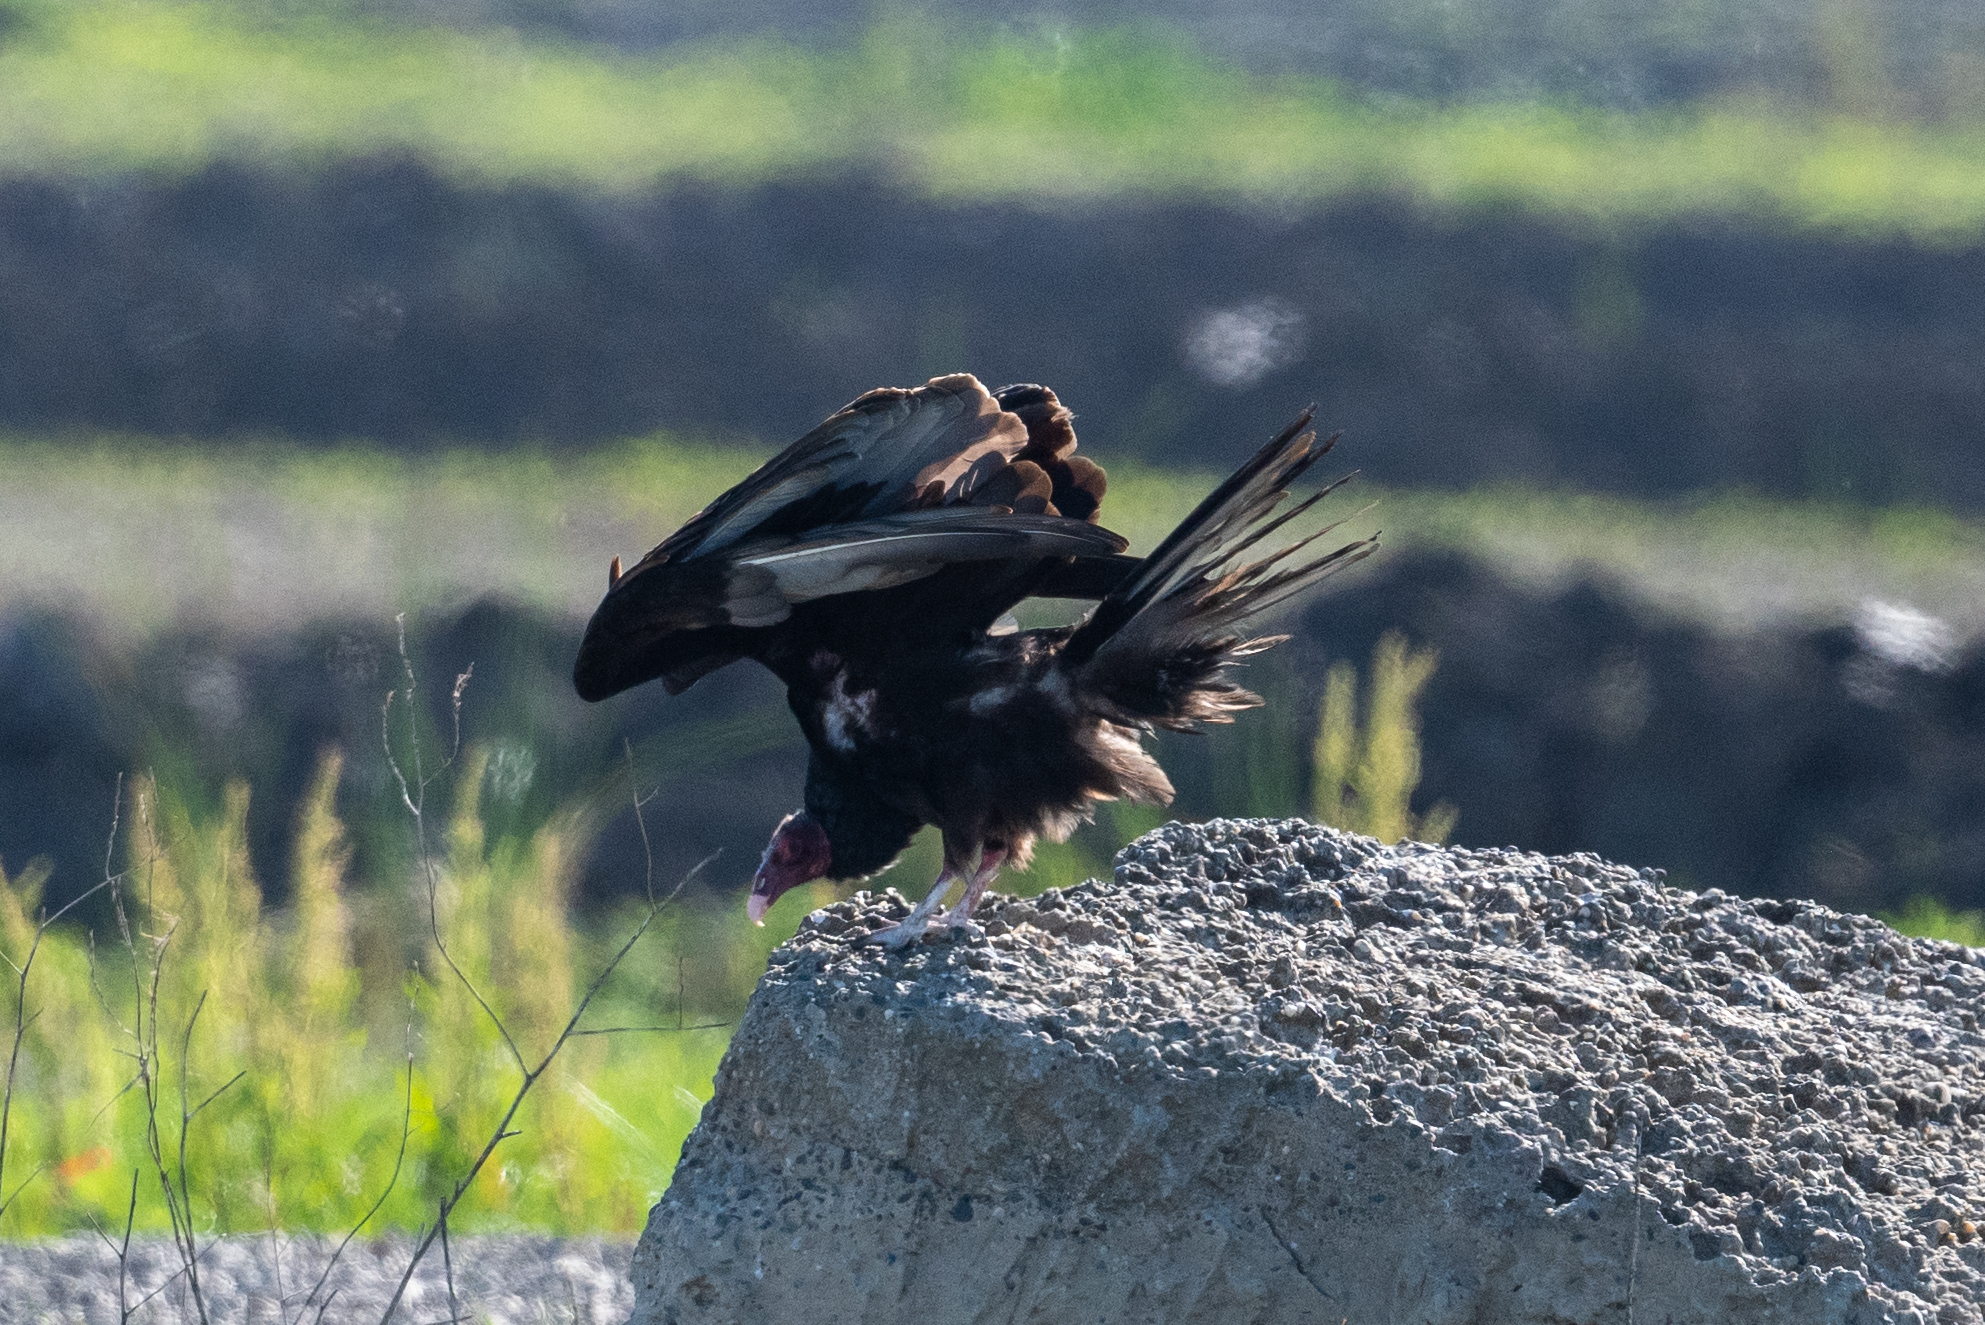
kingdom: Animalia
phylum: Chordata
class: Aves
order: Accipitriformes
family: Cathartidae
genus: Cathartes
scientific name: Cathartes aura
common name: Turkey vulture
